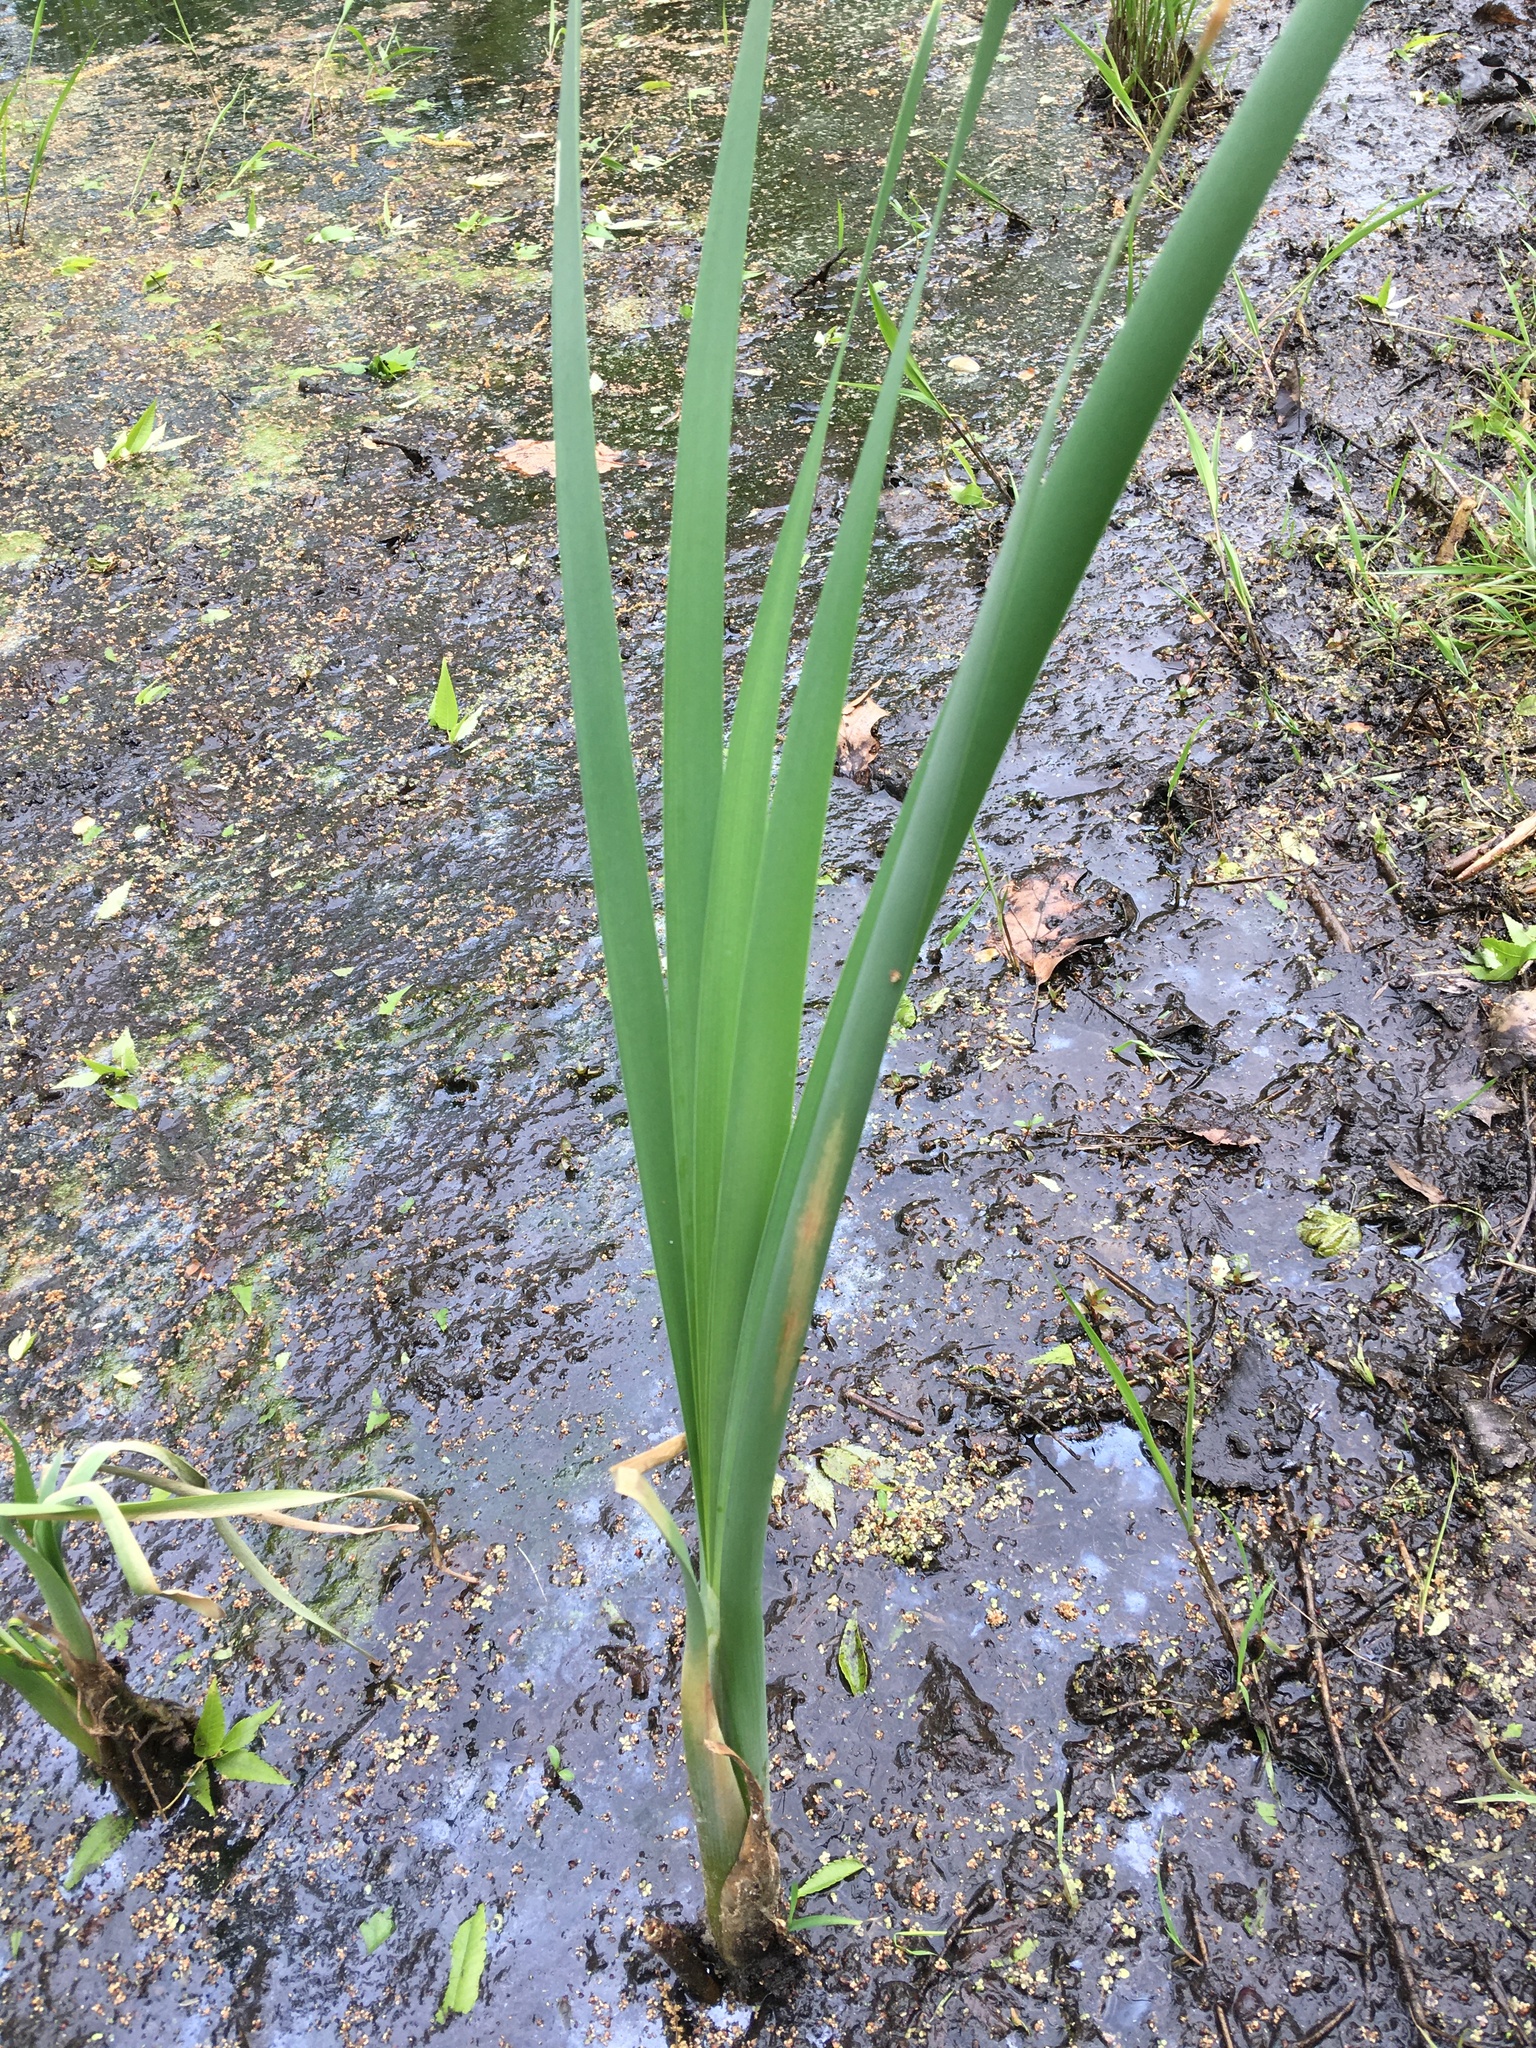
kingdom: Plantae
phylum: Tracheophyta
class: Liliopsida
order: Poales
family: Typhaceae
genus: Typha
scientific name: Typha latifolia
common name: Broadleaf cattail
